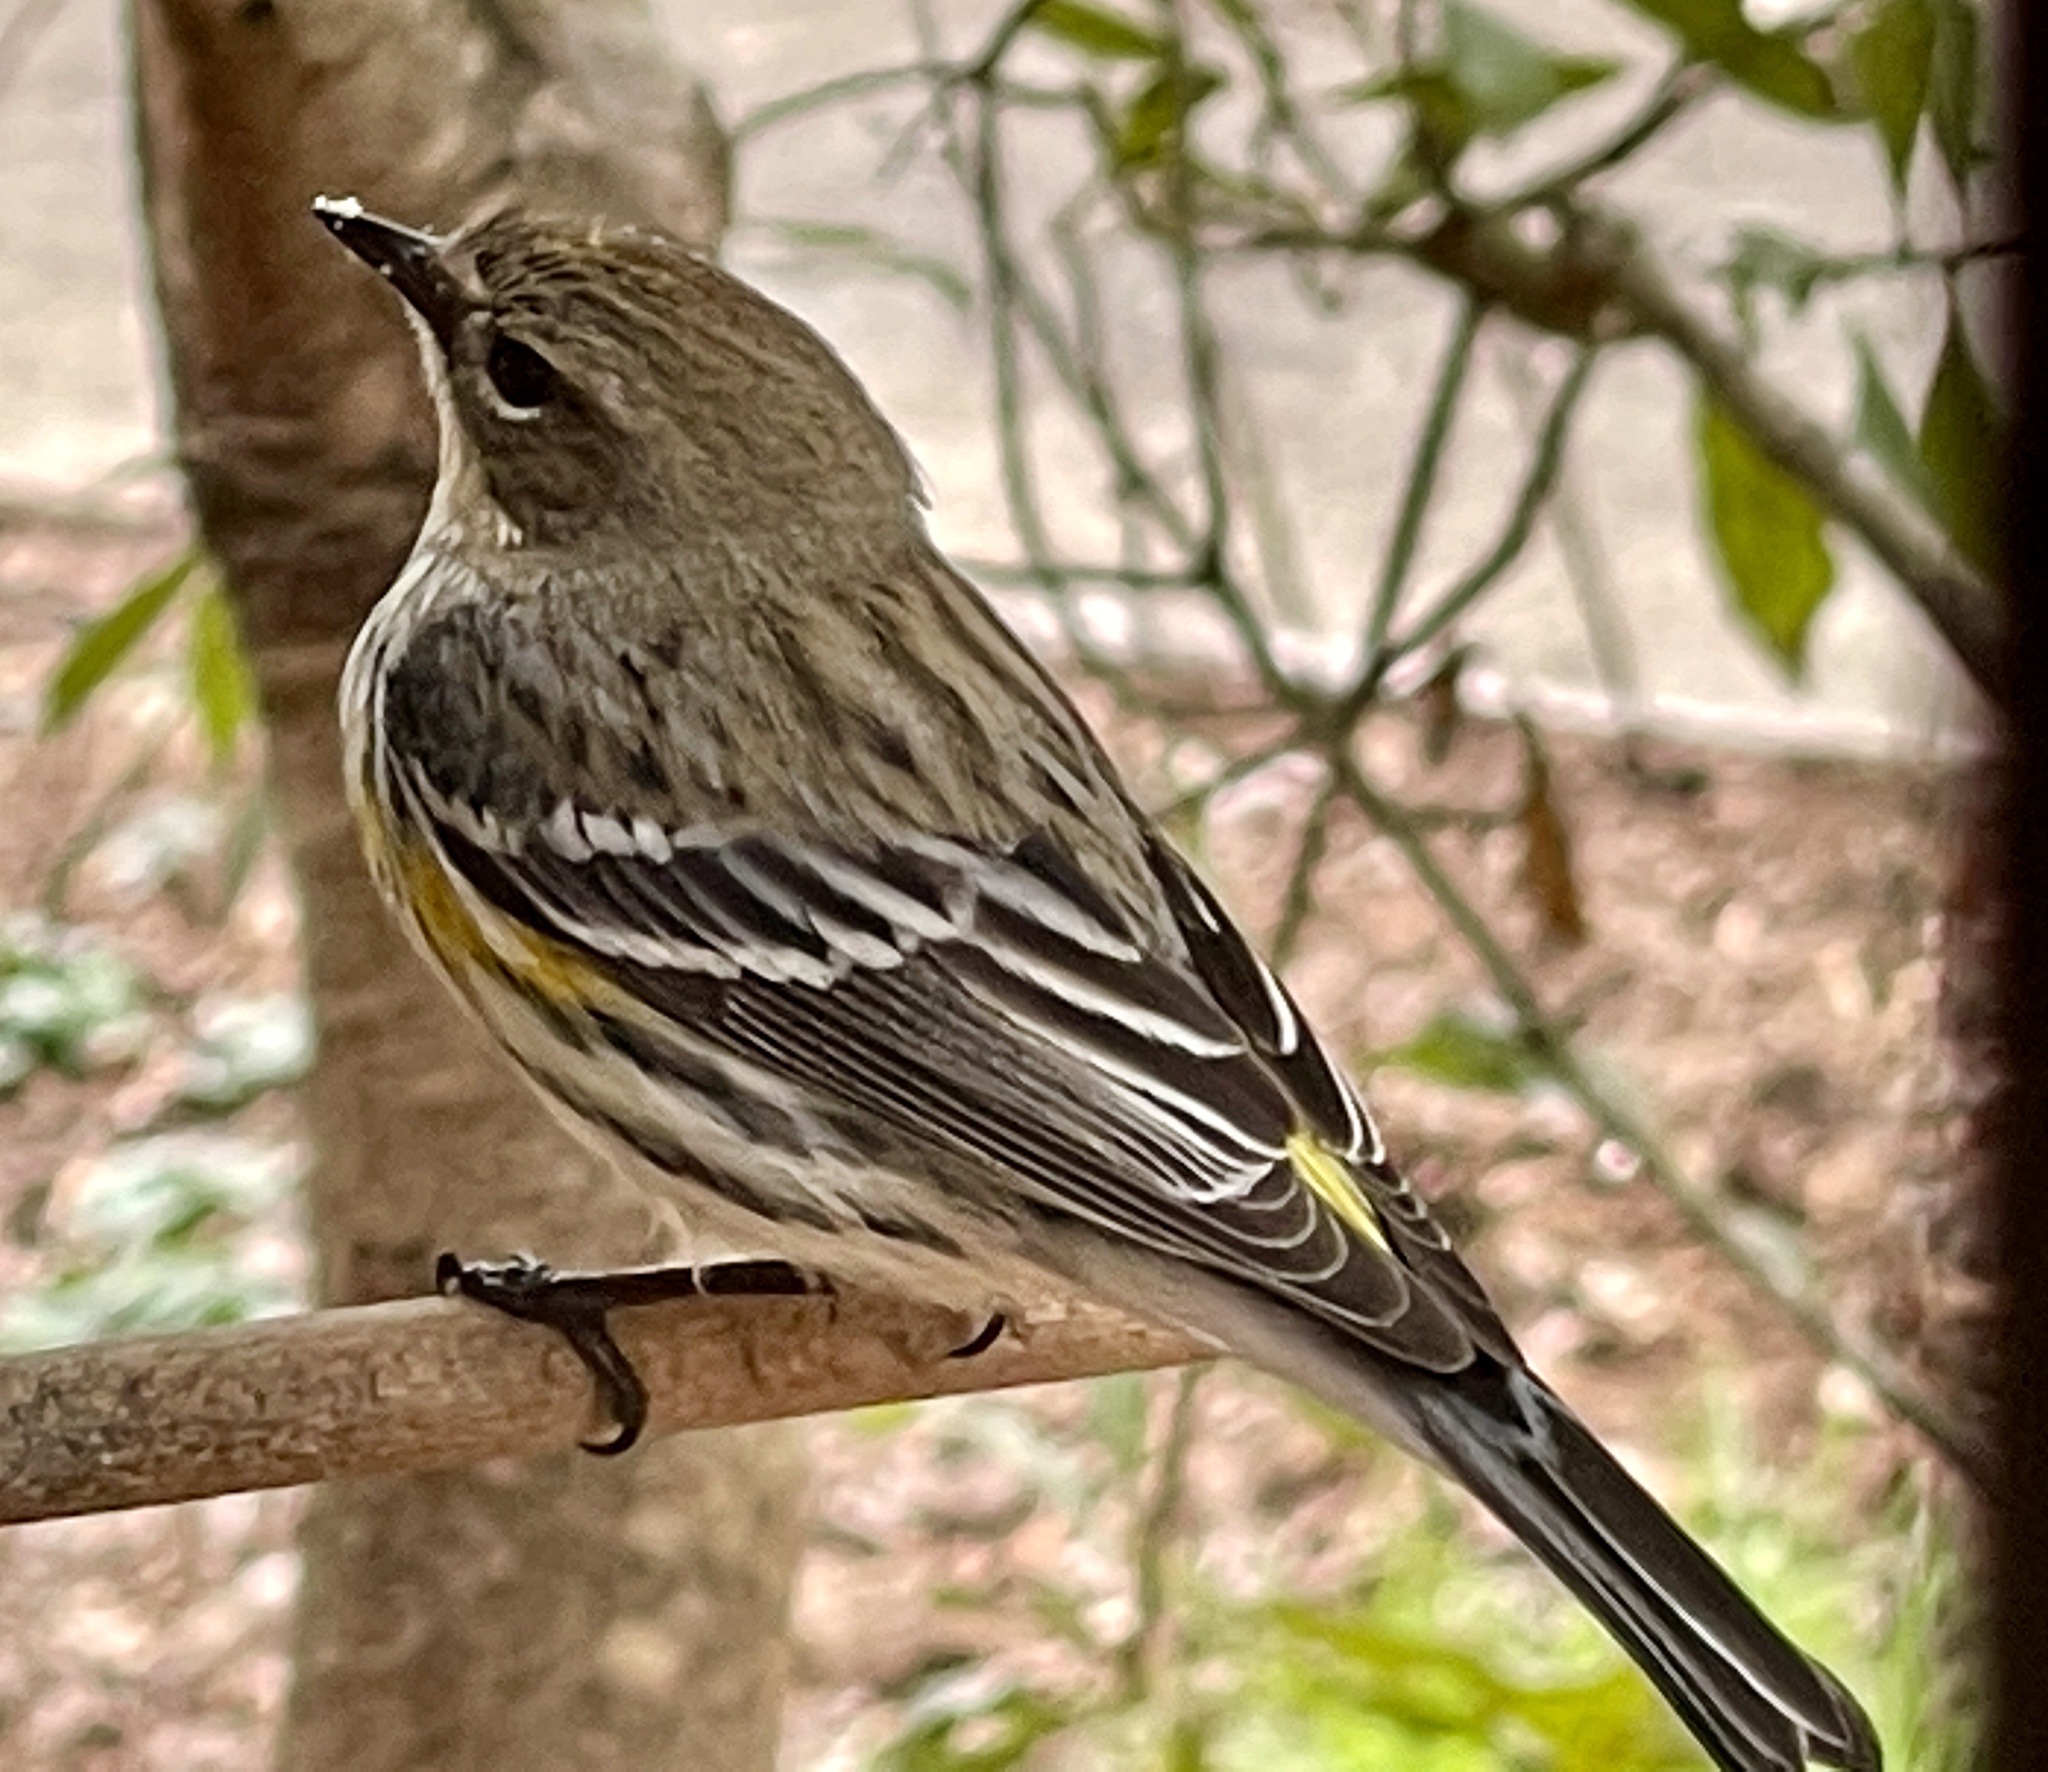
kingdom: Animalia
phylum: Chordata
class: Aves
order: Passeriformes
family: Parulidae
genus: Setophaga
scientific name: Setophaga coronata
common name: Myrtle warbler
